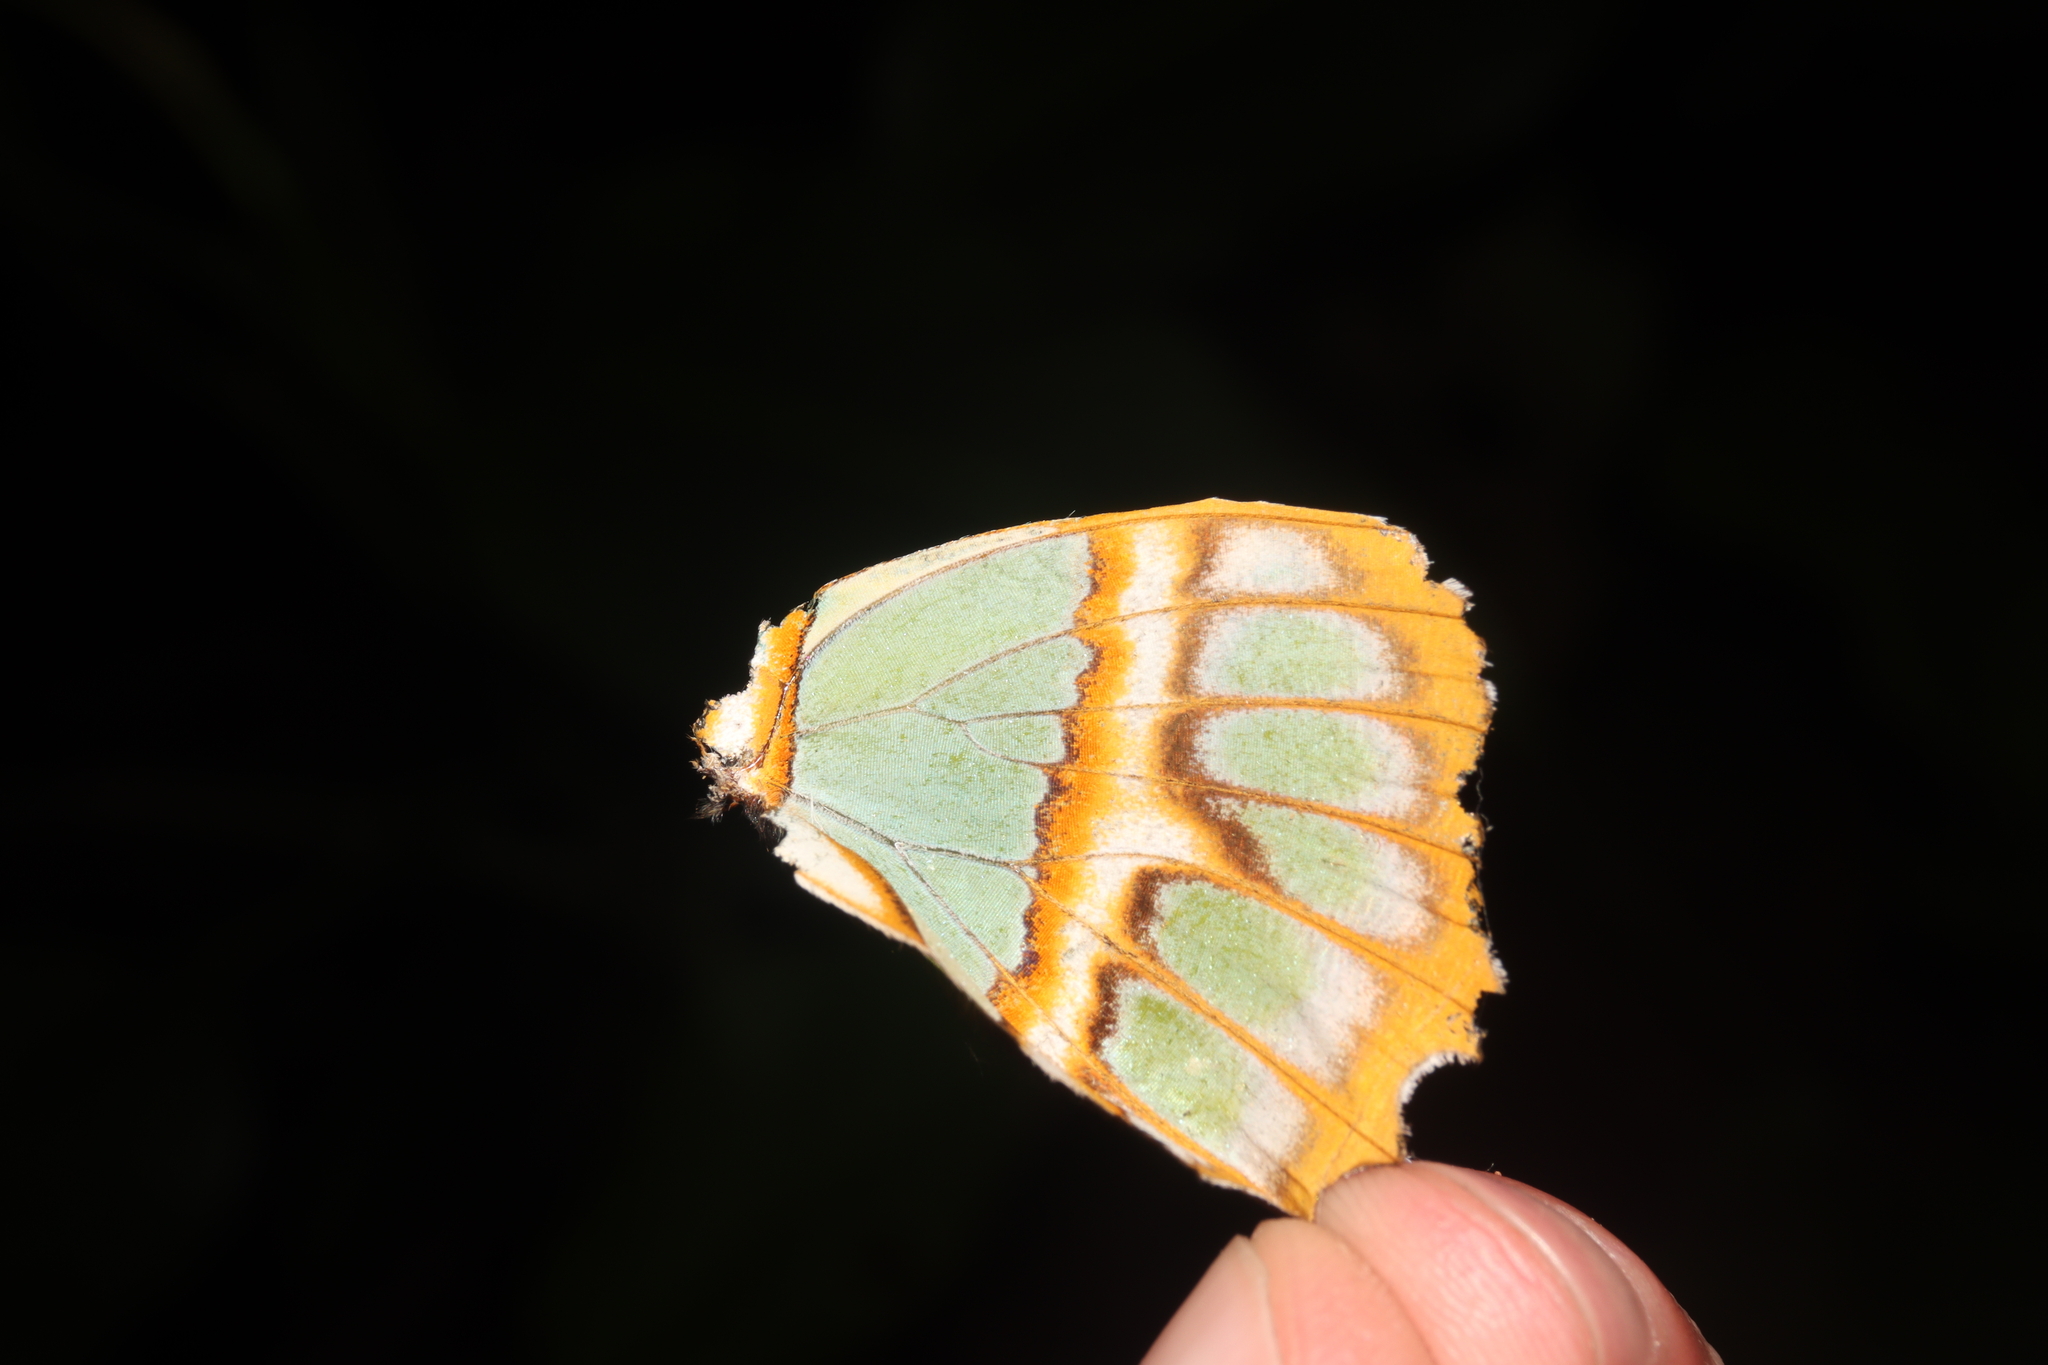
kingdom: Animalia
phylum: Arthropoda
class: Insecta
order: Lepidoptera
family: Nymphalidae
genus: Siproeta
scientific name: Siproeta stelenes
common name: Malachite
